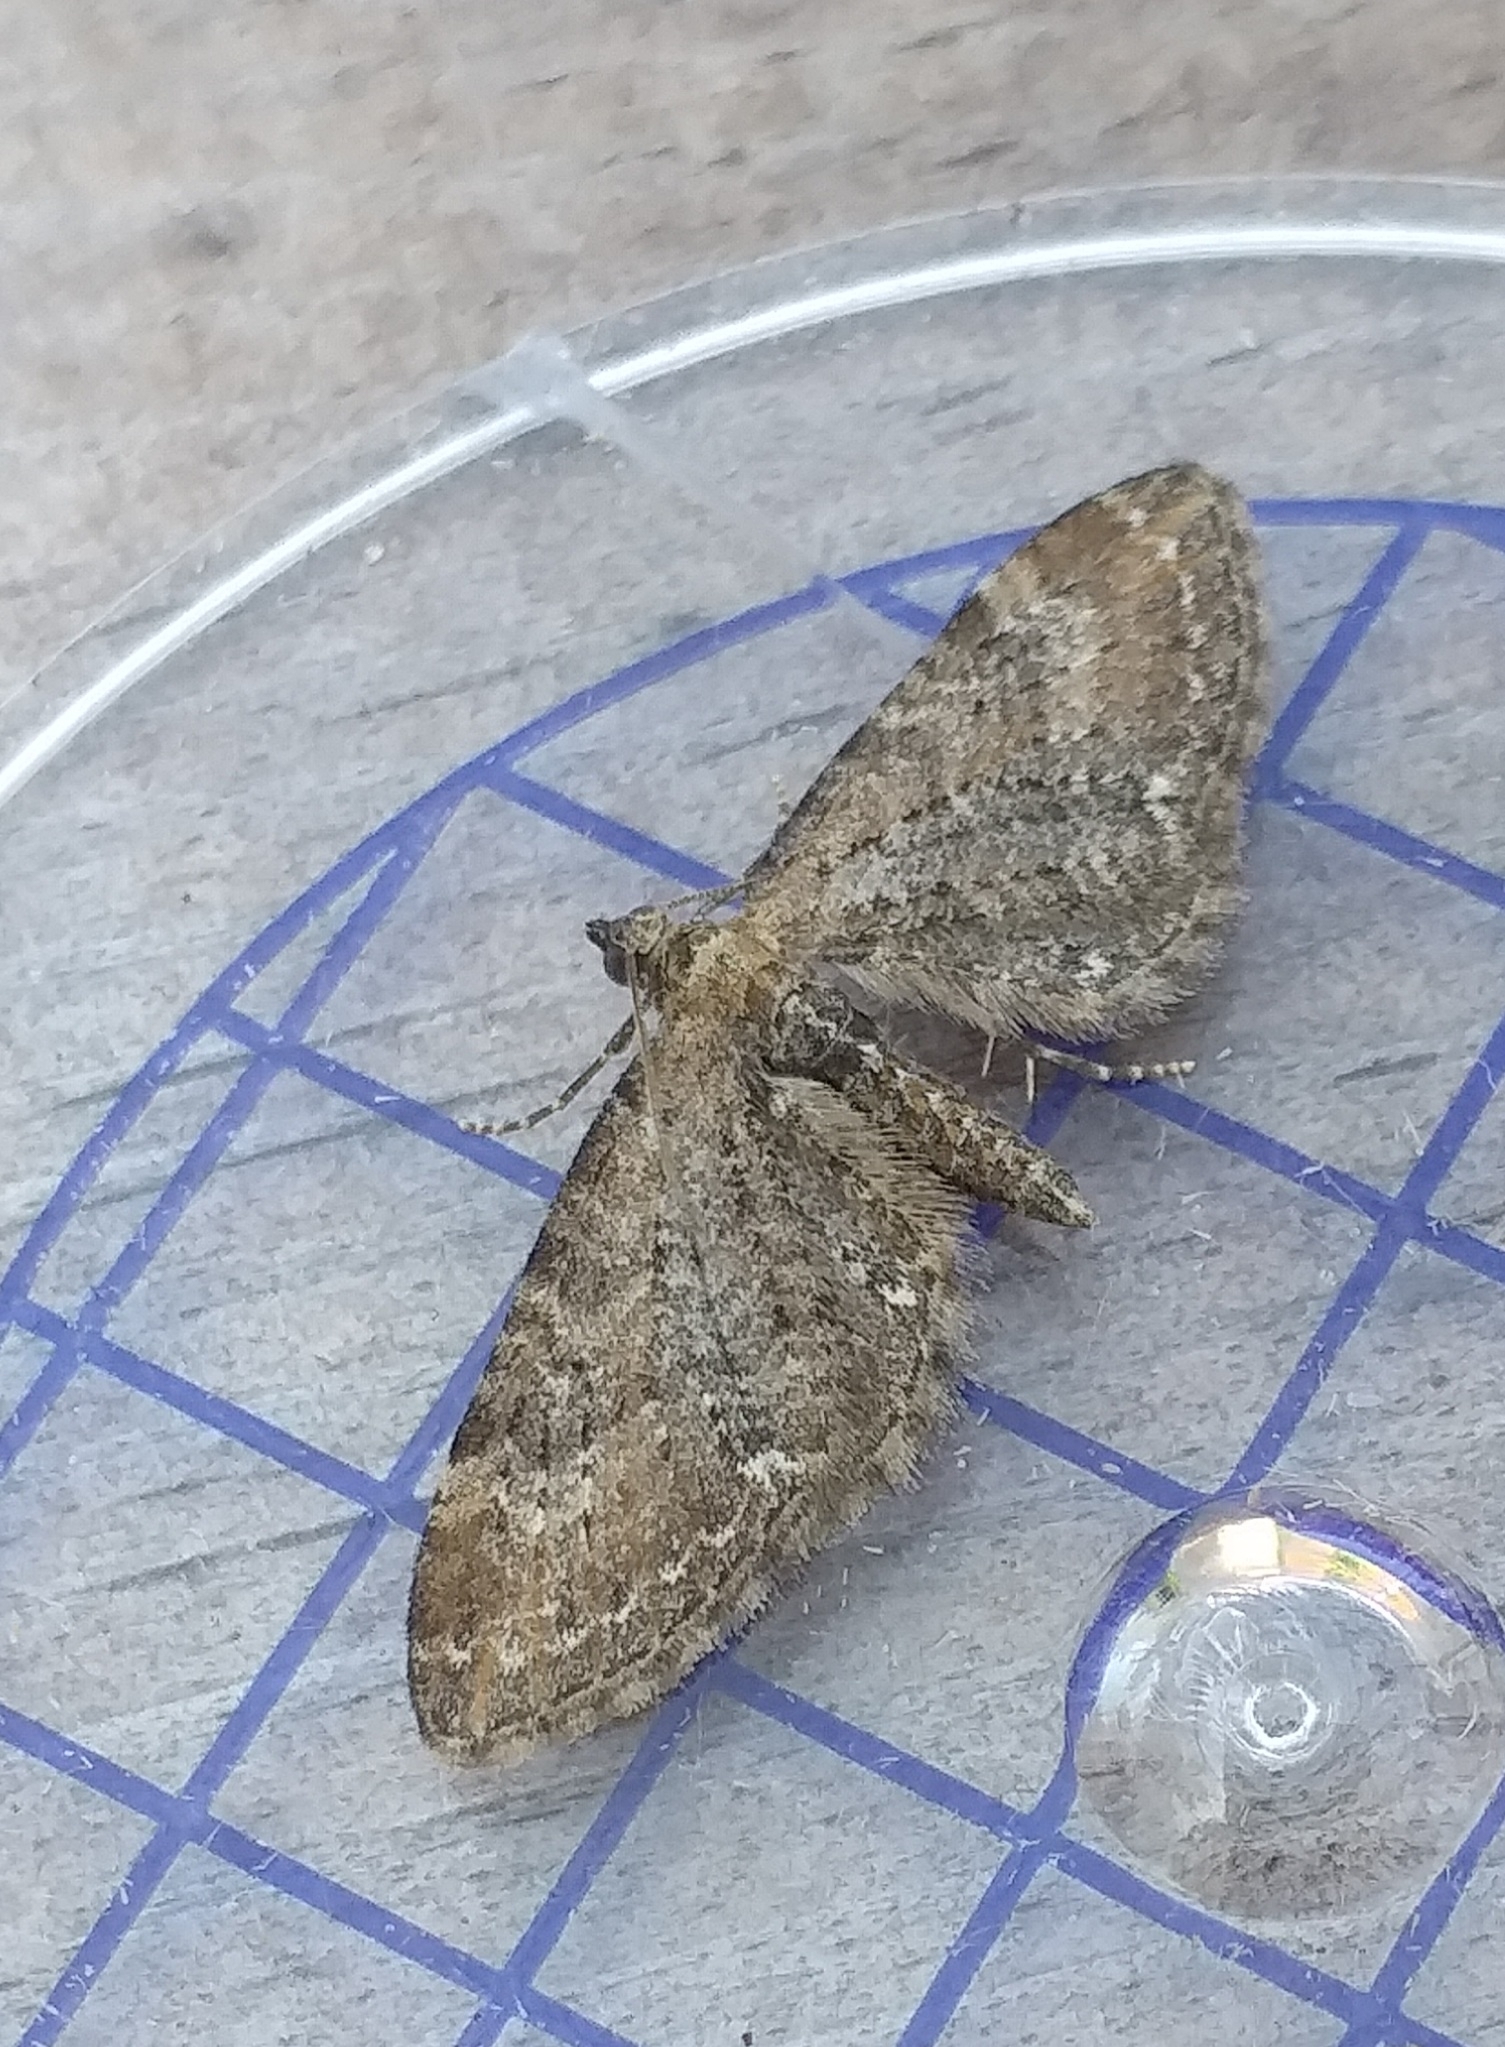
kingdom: Animalia
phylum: Arthropoda
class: Insecta
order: Lepidoptera
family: Geometridae
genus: Eupithecia
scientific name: Eupithecia vulgata
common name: Common pug
